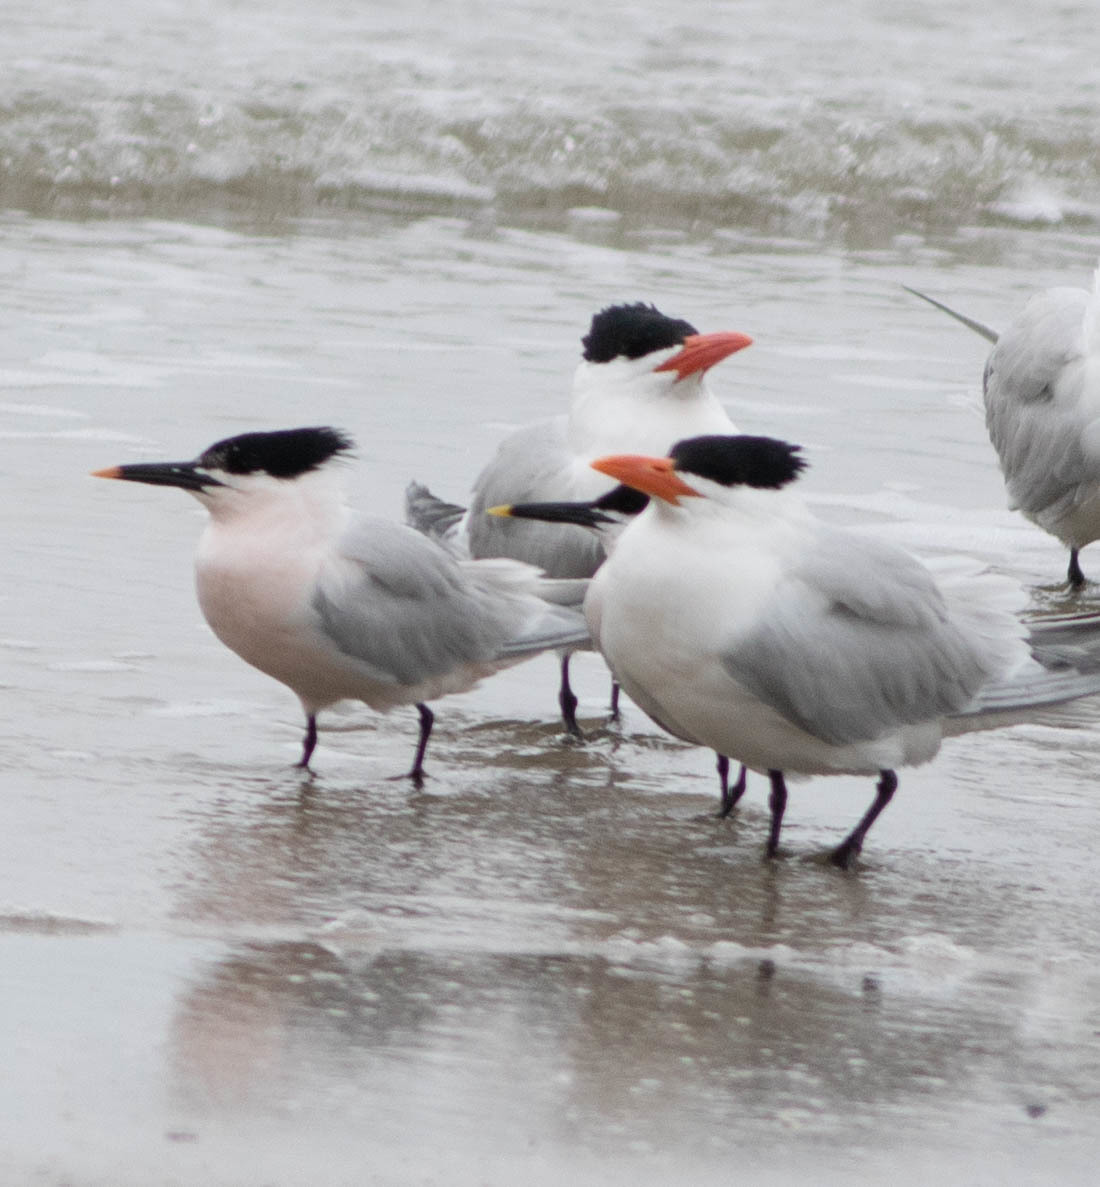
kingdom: Animalia
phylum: Chordata
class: Aves
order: Charadriiformes
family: Laridae
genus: Thalasseus
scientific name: Thalasseus sandvicensis
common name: Sandwich tern
